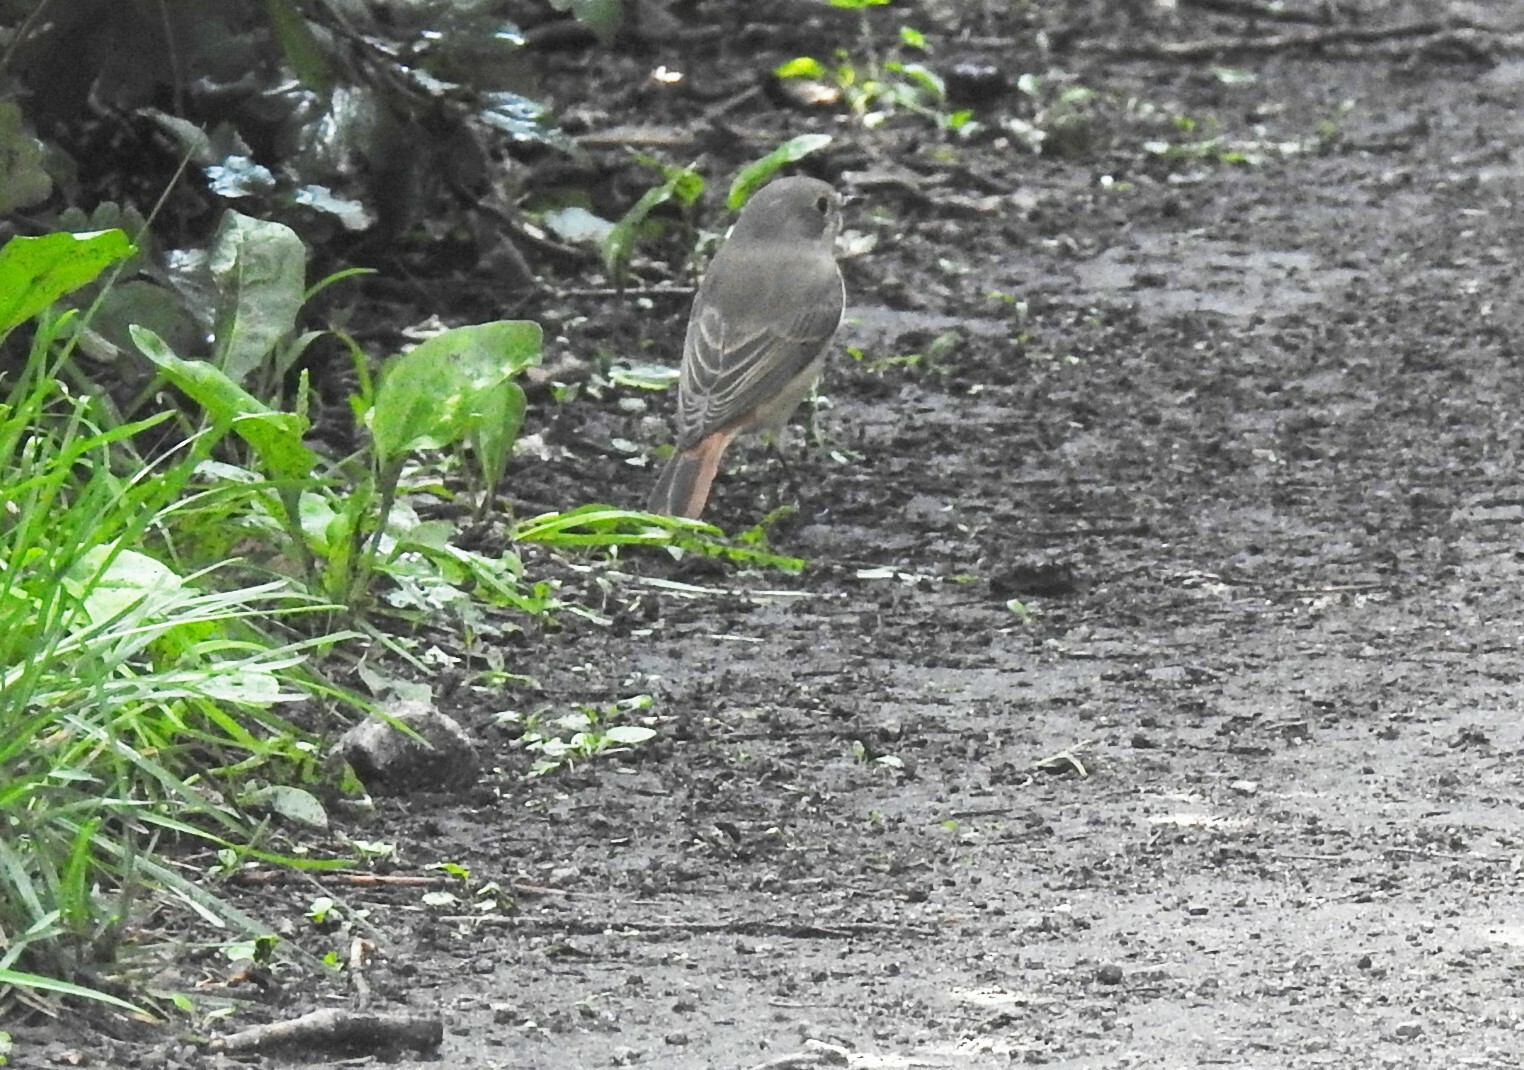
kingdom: Animalia
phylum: Chordata
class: Aves
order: Passeriformes
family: Muscicapidae
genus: Phoenicurus
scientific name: Phoenicurus phoenicurus
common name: Common redstart
